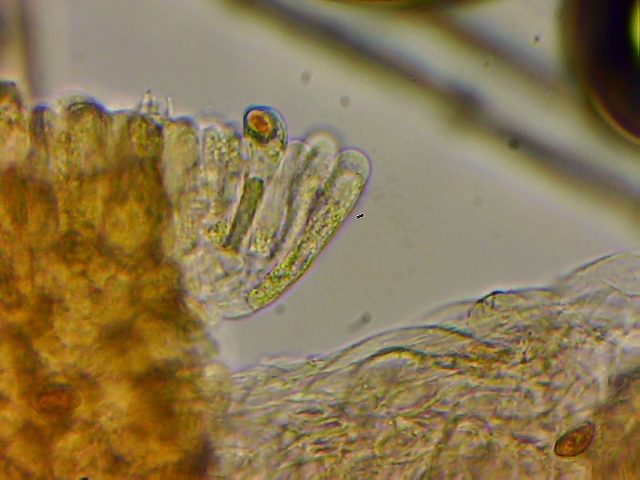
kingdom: Fungi
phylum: Basidiomycota
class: Agaricomycetes
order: Agaricales
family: Inocybaceae
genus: Inocybe
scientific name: Inocybe mycenoides
